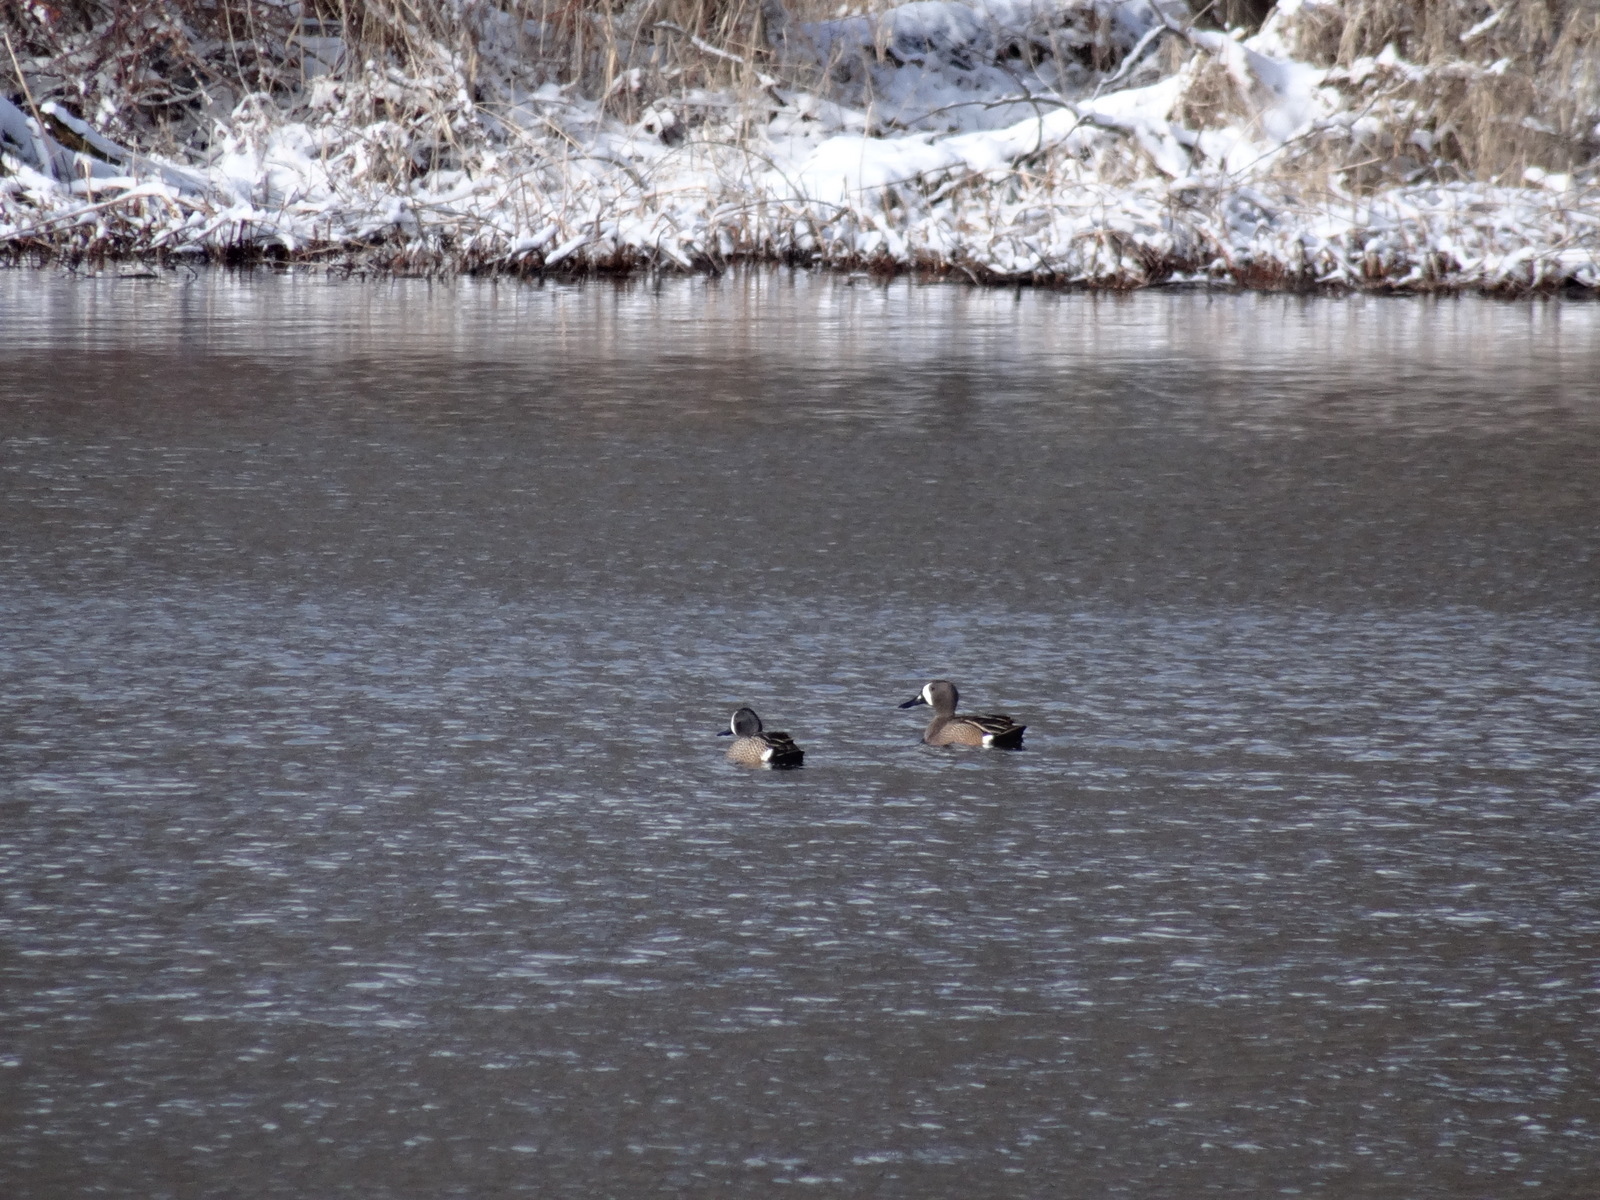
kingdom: Animalia
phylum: Chordata
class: Aves
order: Anseriformes
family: Anatidae
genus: Spatula
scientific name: Spatula discors
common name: Blue-winged teal
